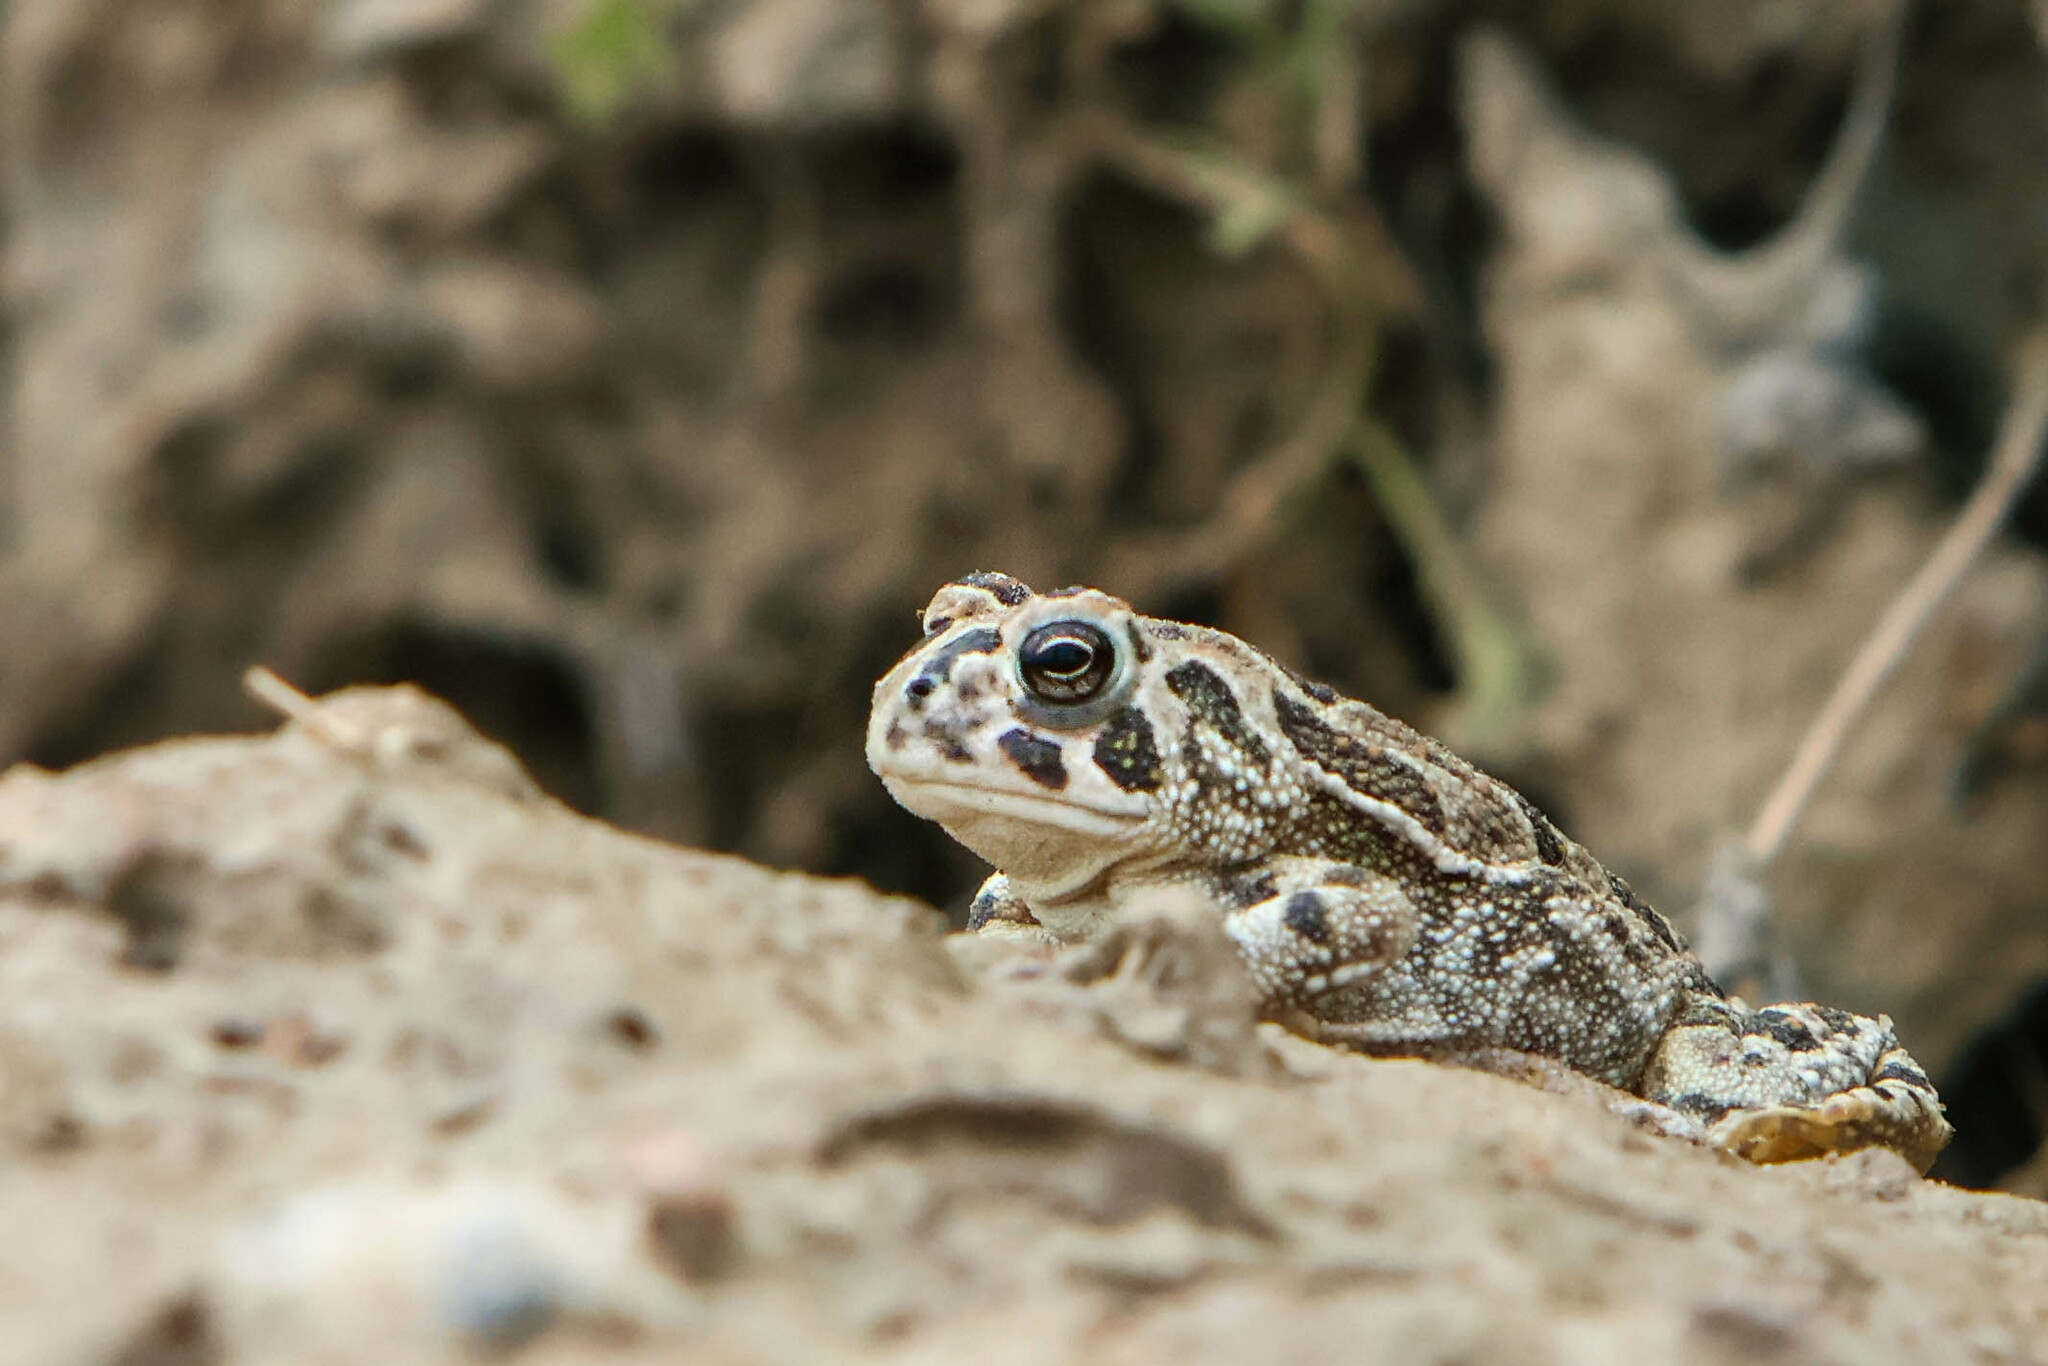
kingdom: Animalia
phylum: Chordata
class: Amphibia
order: Anura
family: Bufonidae
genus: Anaxyrus
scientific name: Anaxyrus cognatus
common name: Great plains toad
